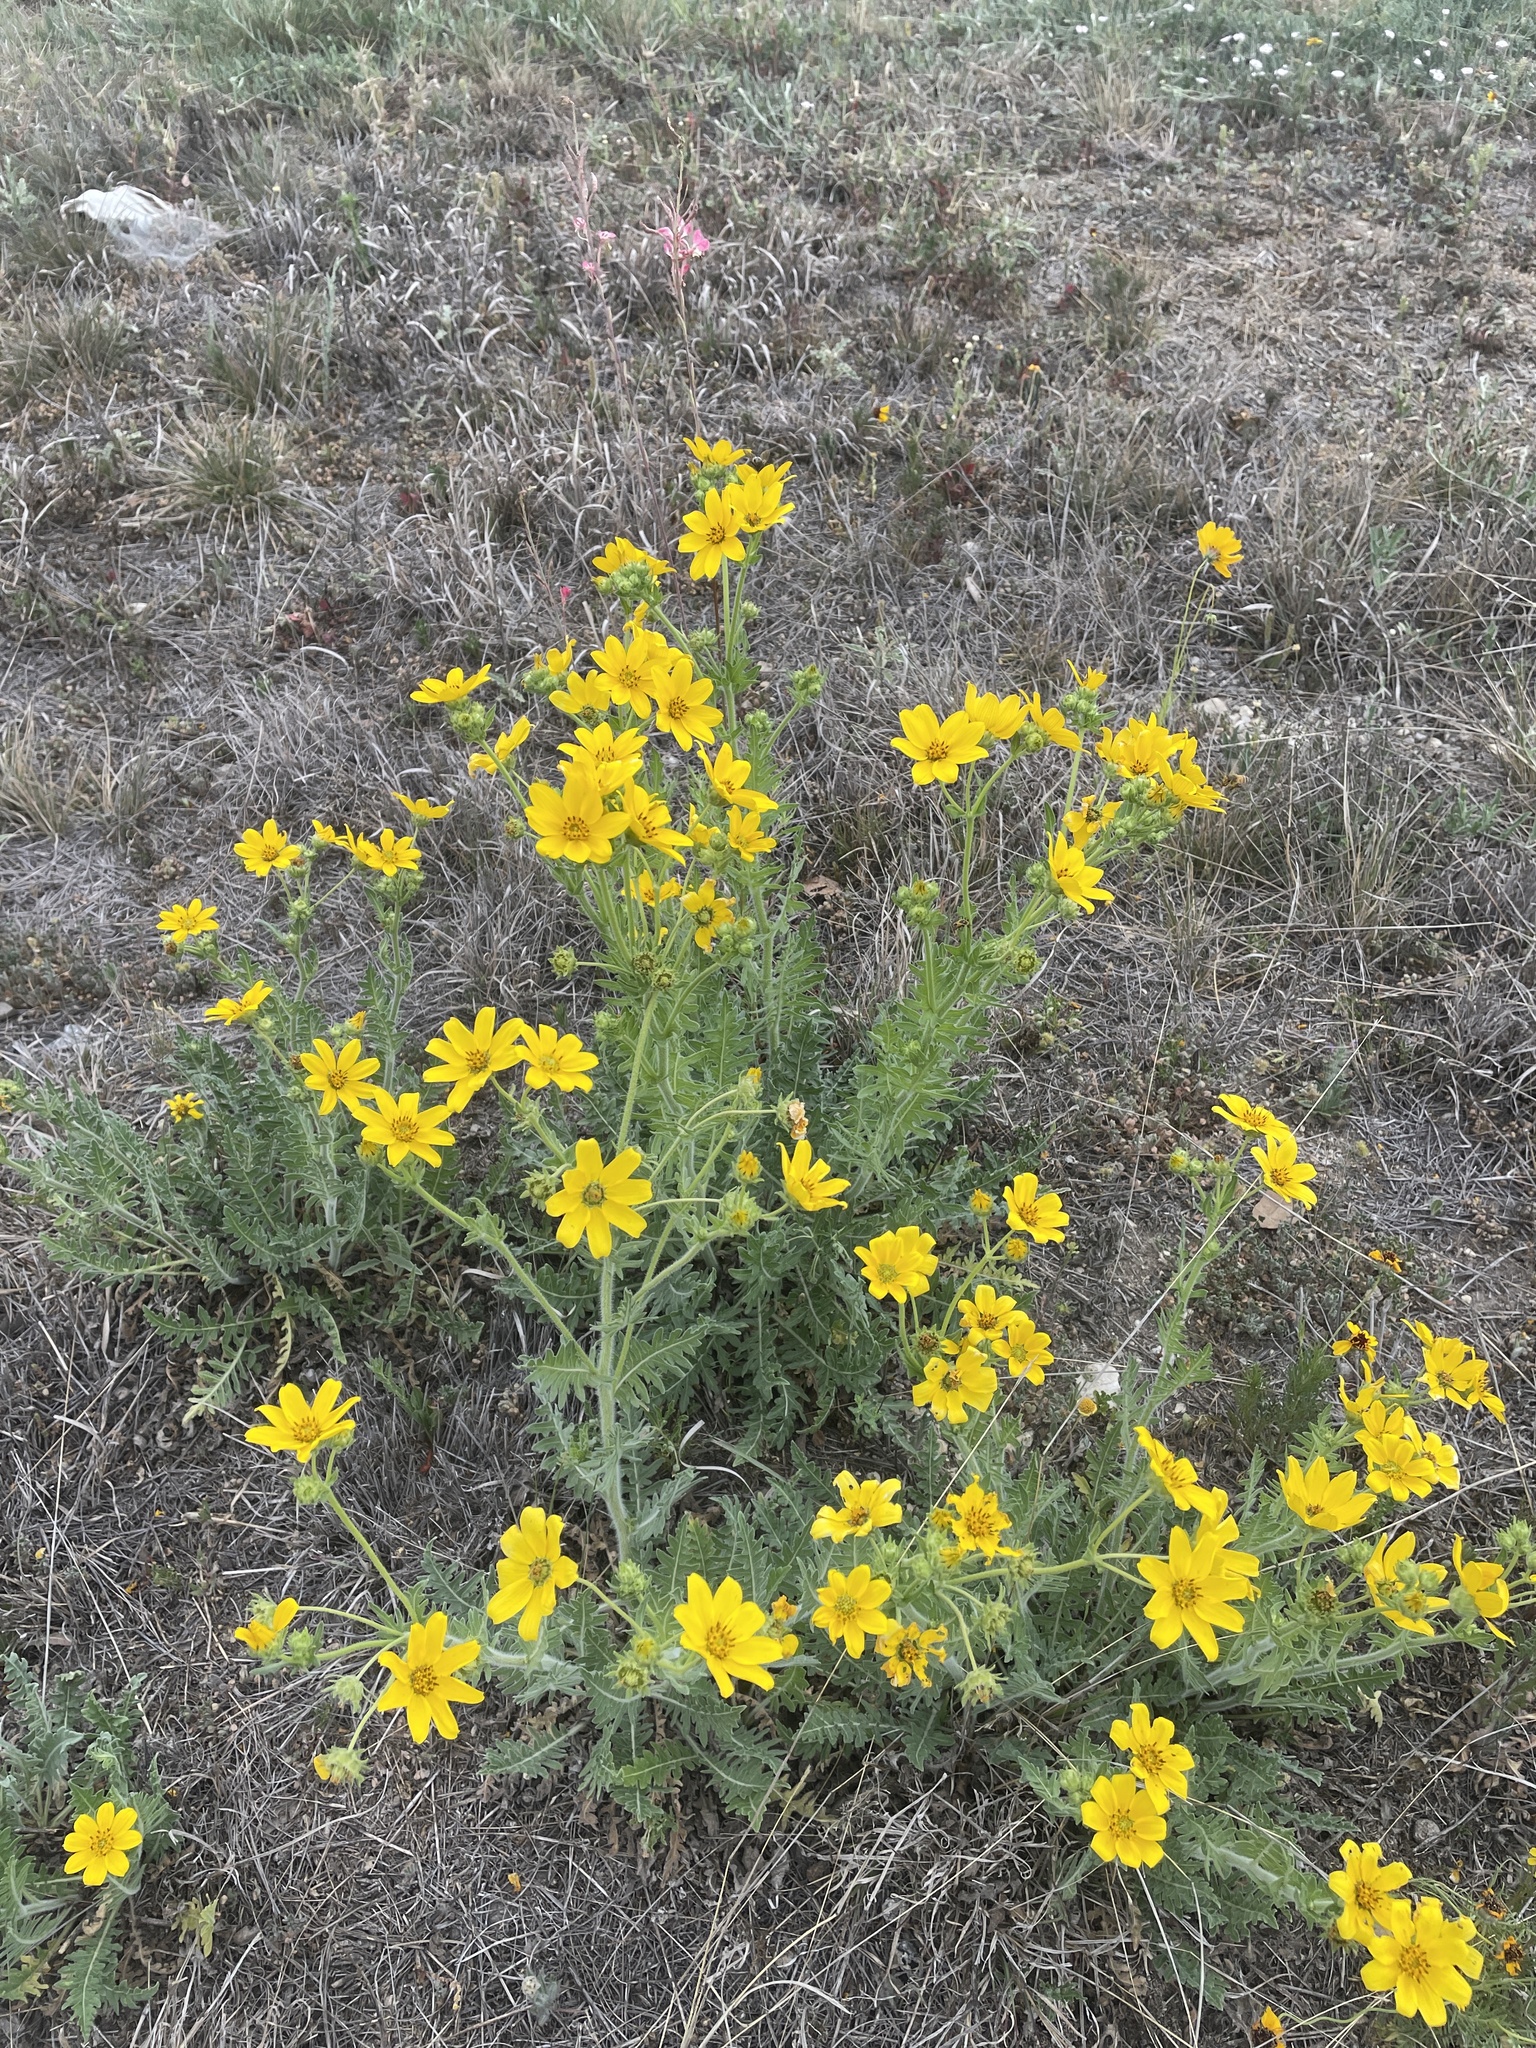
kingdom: Plantae
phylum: Tracheophyta
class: Magnoliopsida
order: Asterales
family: Asteraceae
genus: Engelmannia
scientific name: Engelmannia peristenia
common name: Engelmann's daisy
